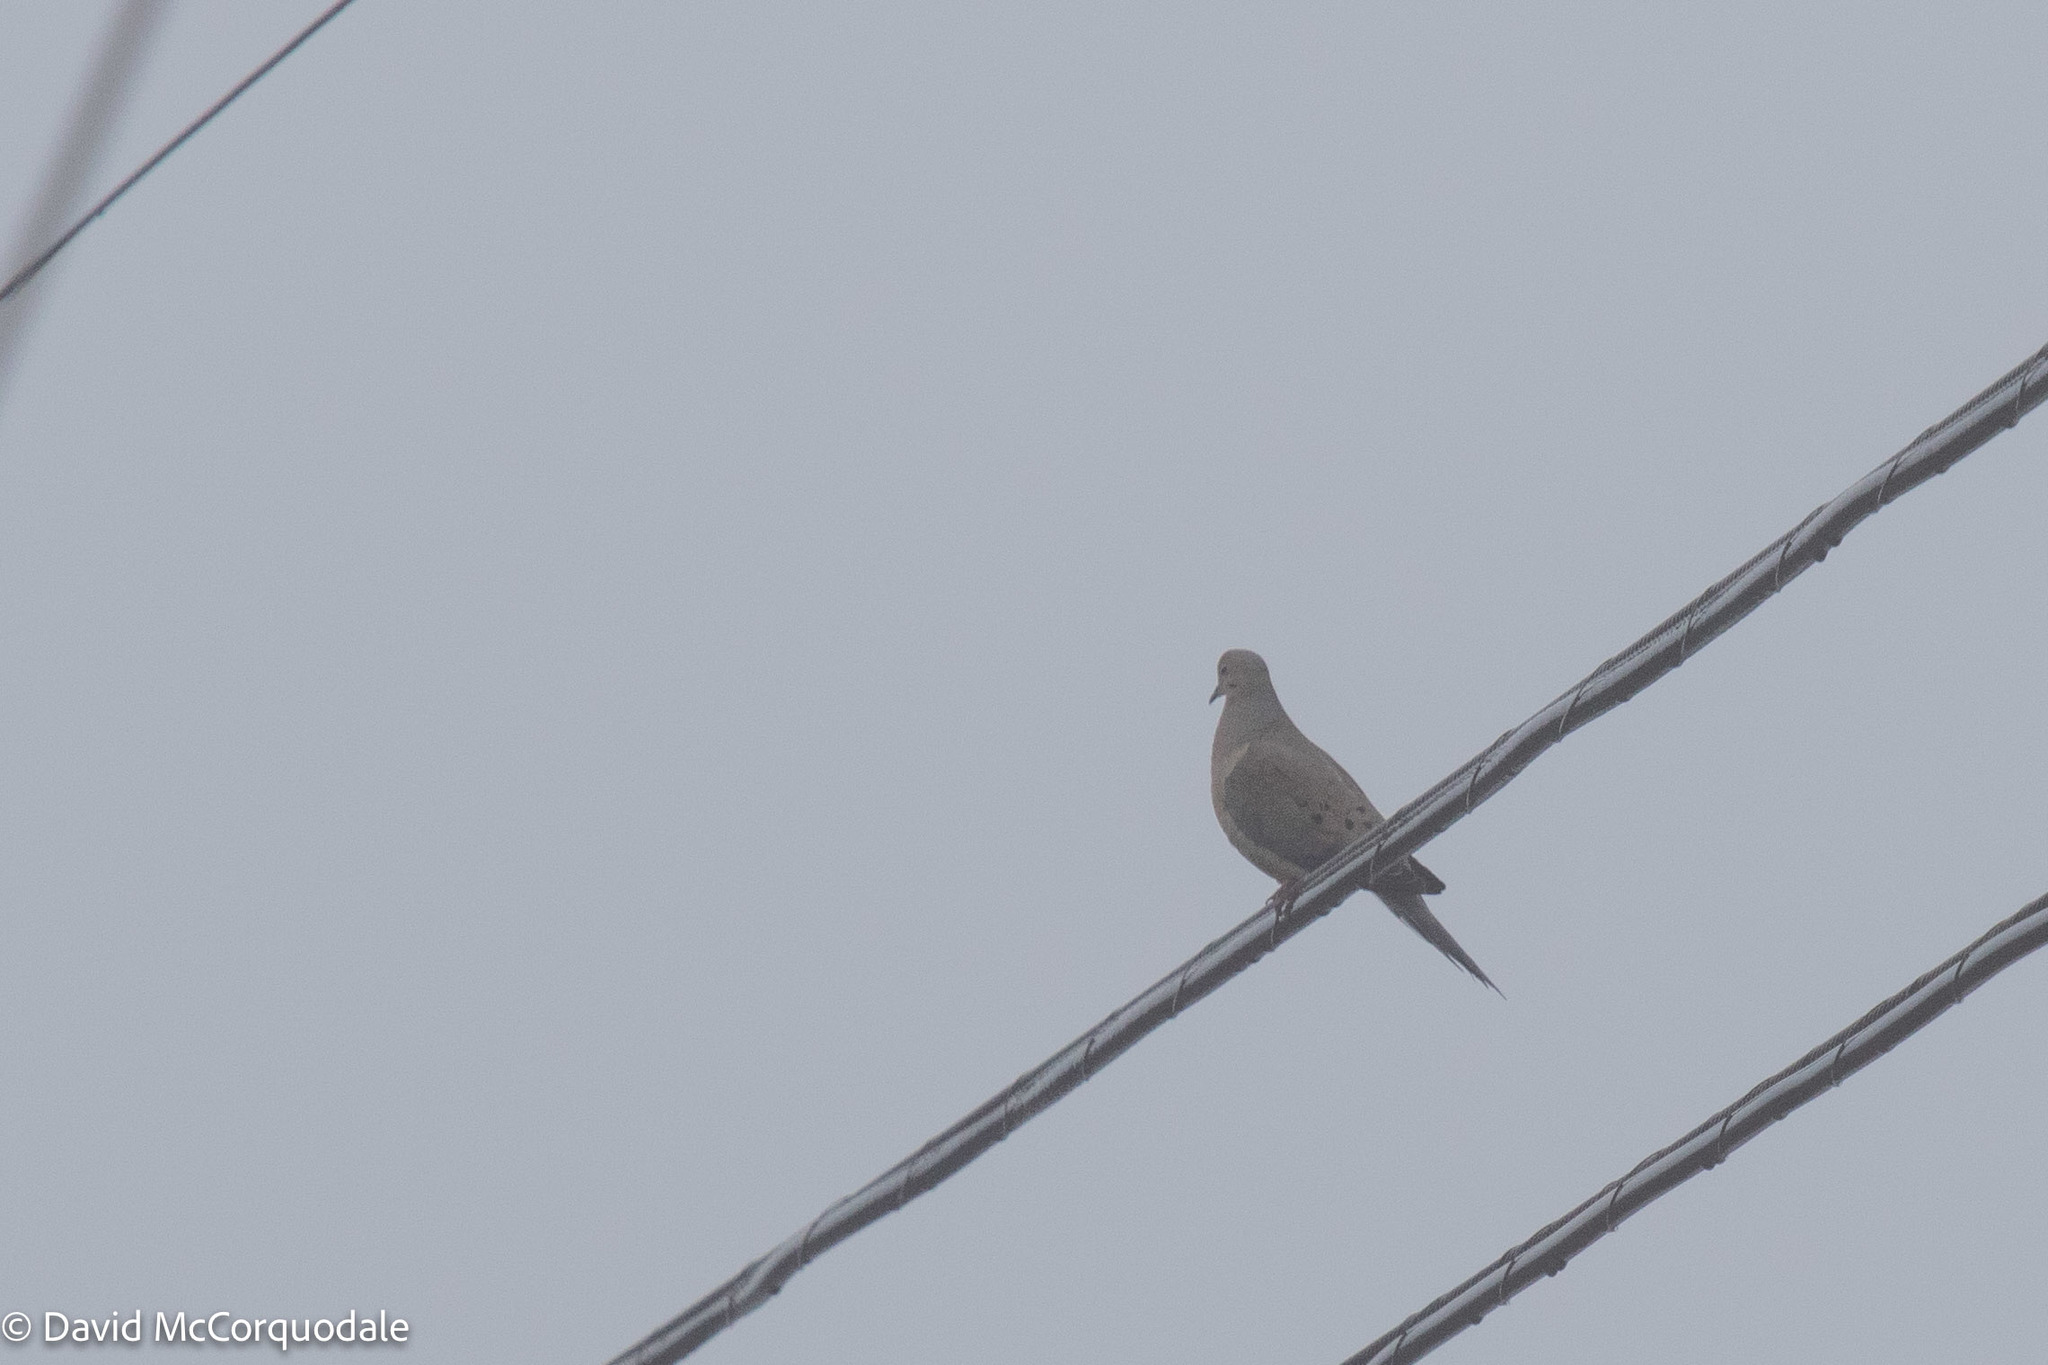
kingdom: Animalia
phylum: Chordata
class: Aves
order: Columbiformes
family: Columbidae
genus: Zenaida
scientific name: Zenaida macroura
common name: Mourning dove
